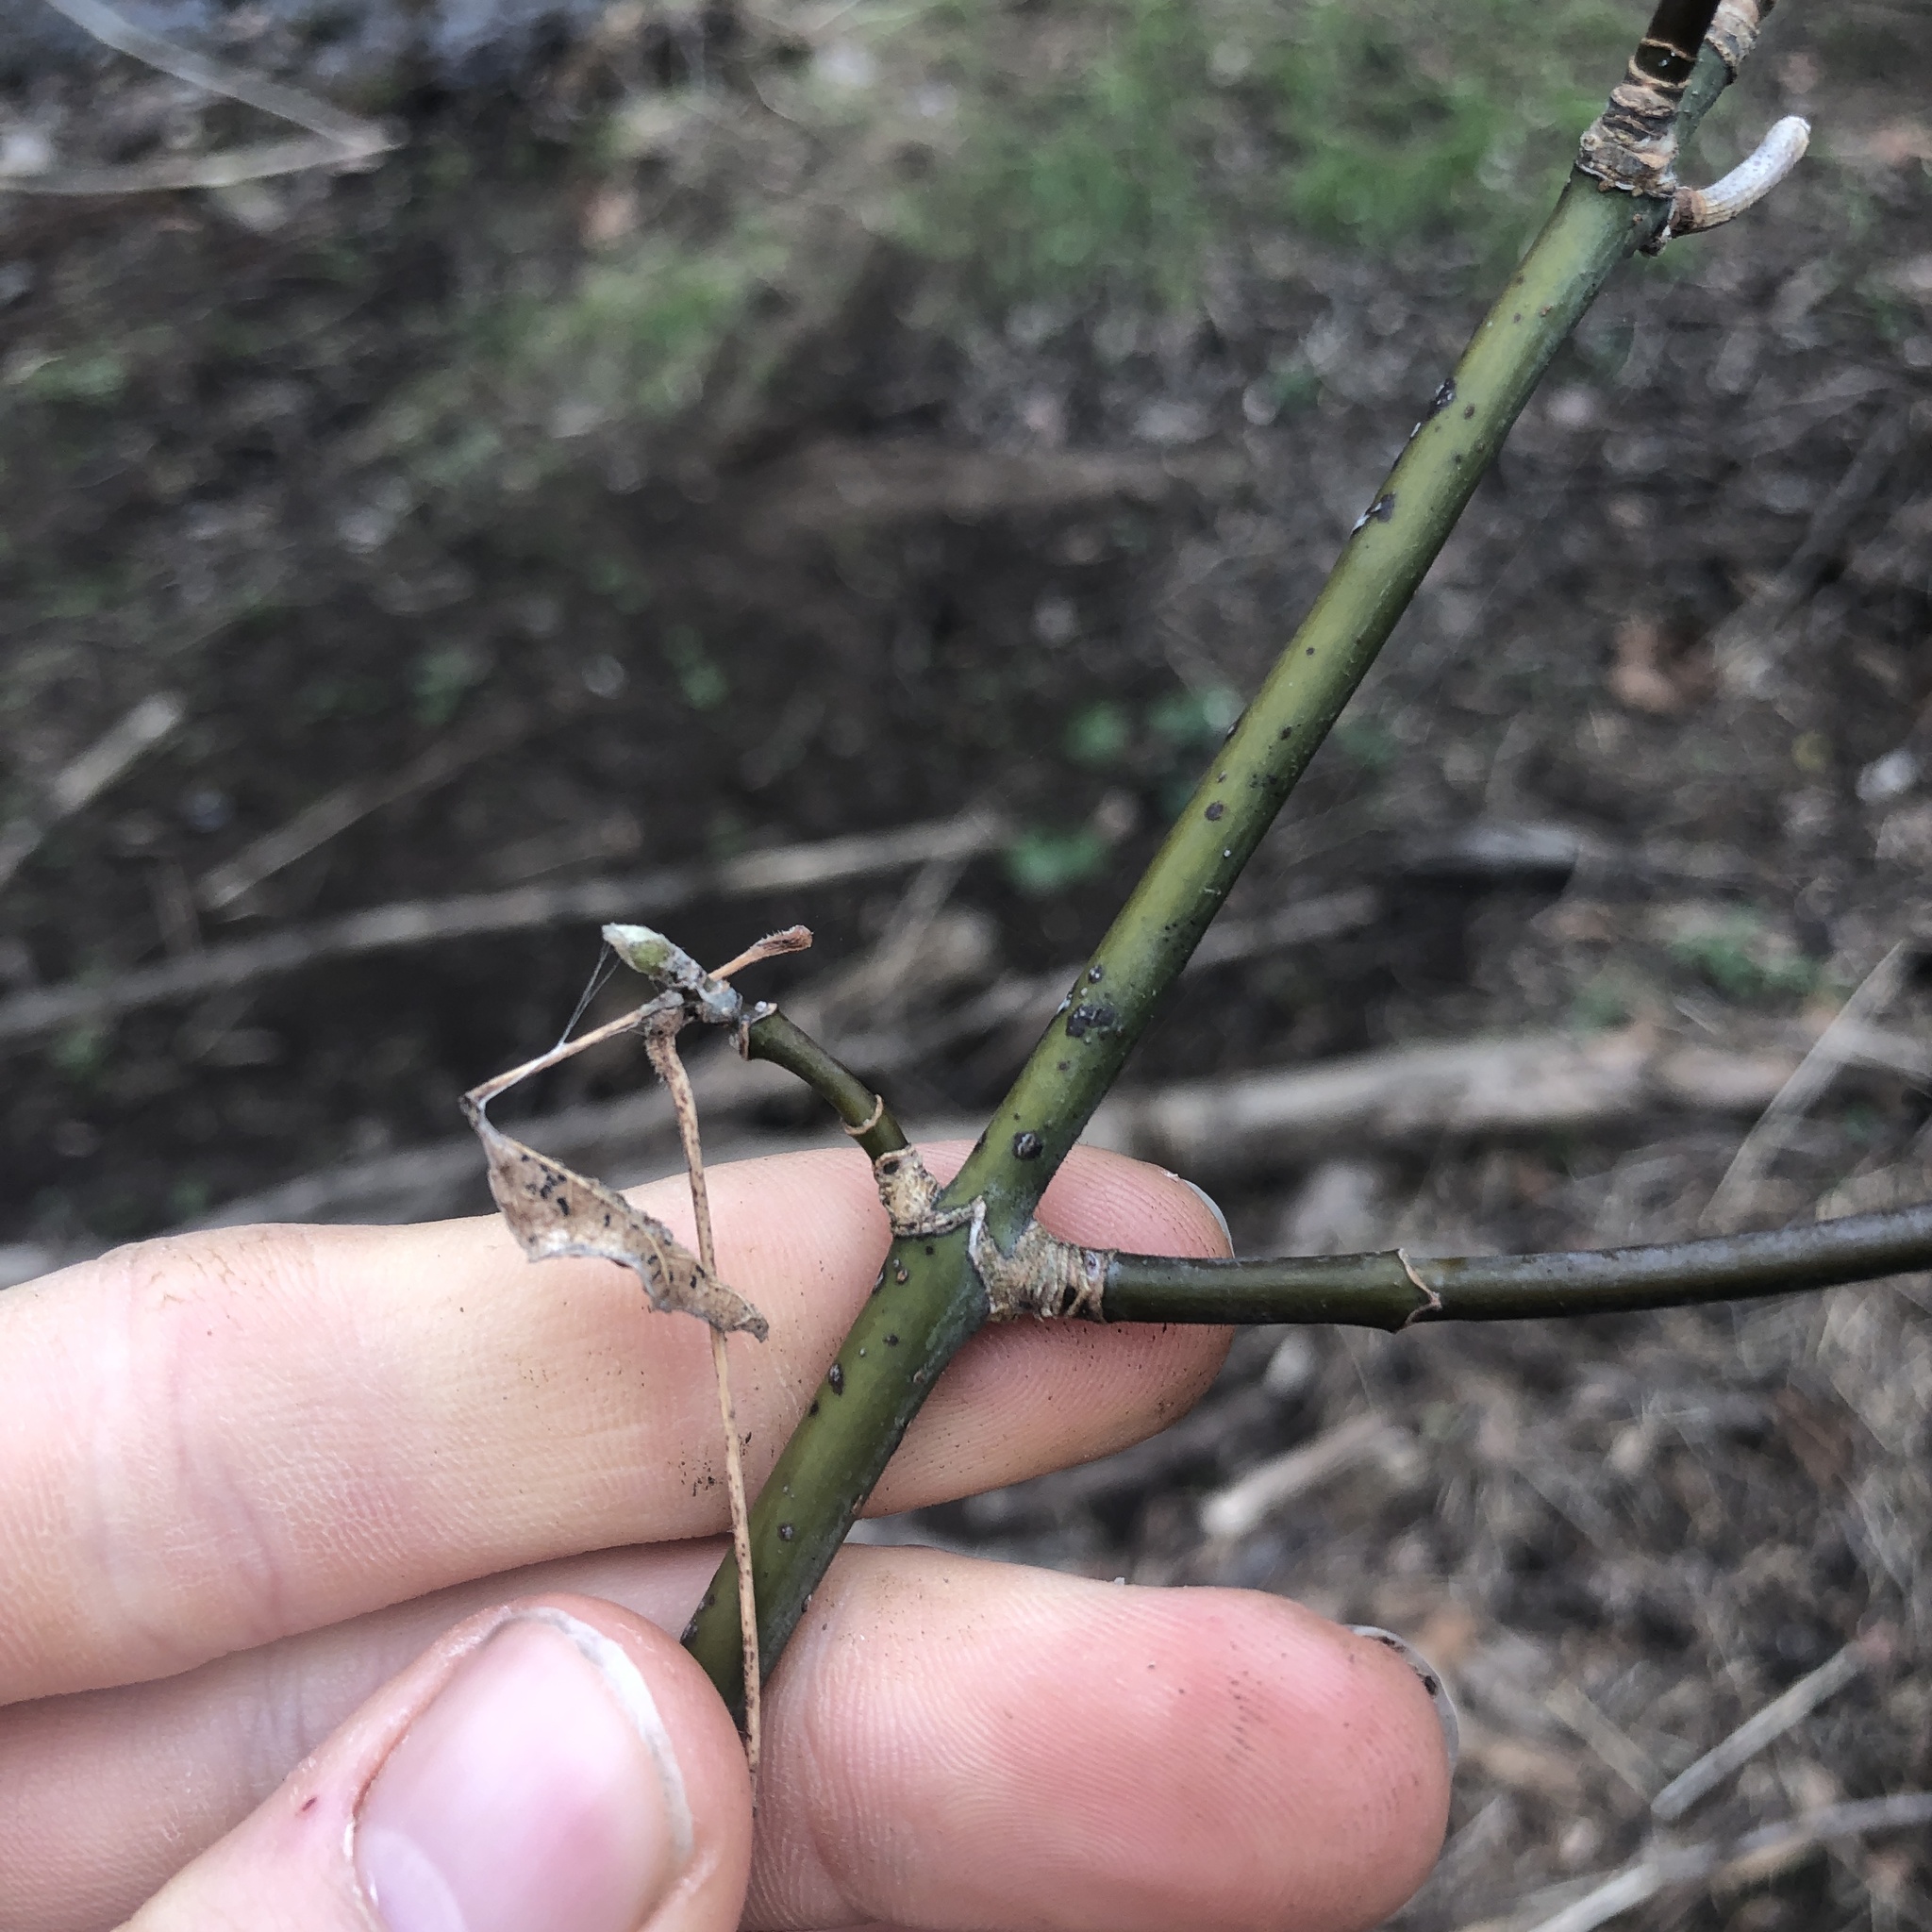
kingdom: Plantae
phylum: Tracheophyta
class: Magnoliopsida
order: Sapindales
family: Sapindaceae
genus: Acer
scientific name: Acer negundo
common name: Ashleaf maple
